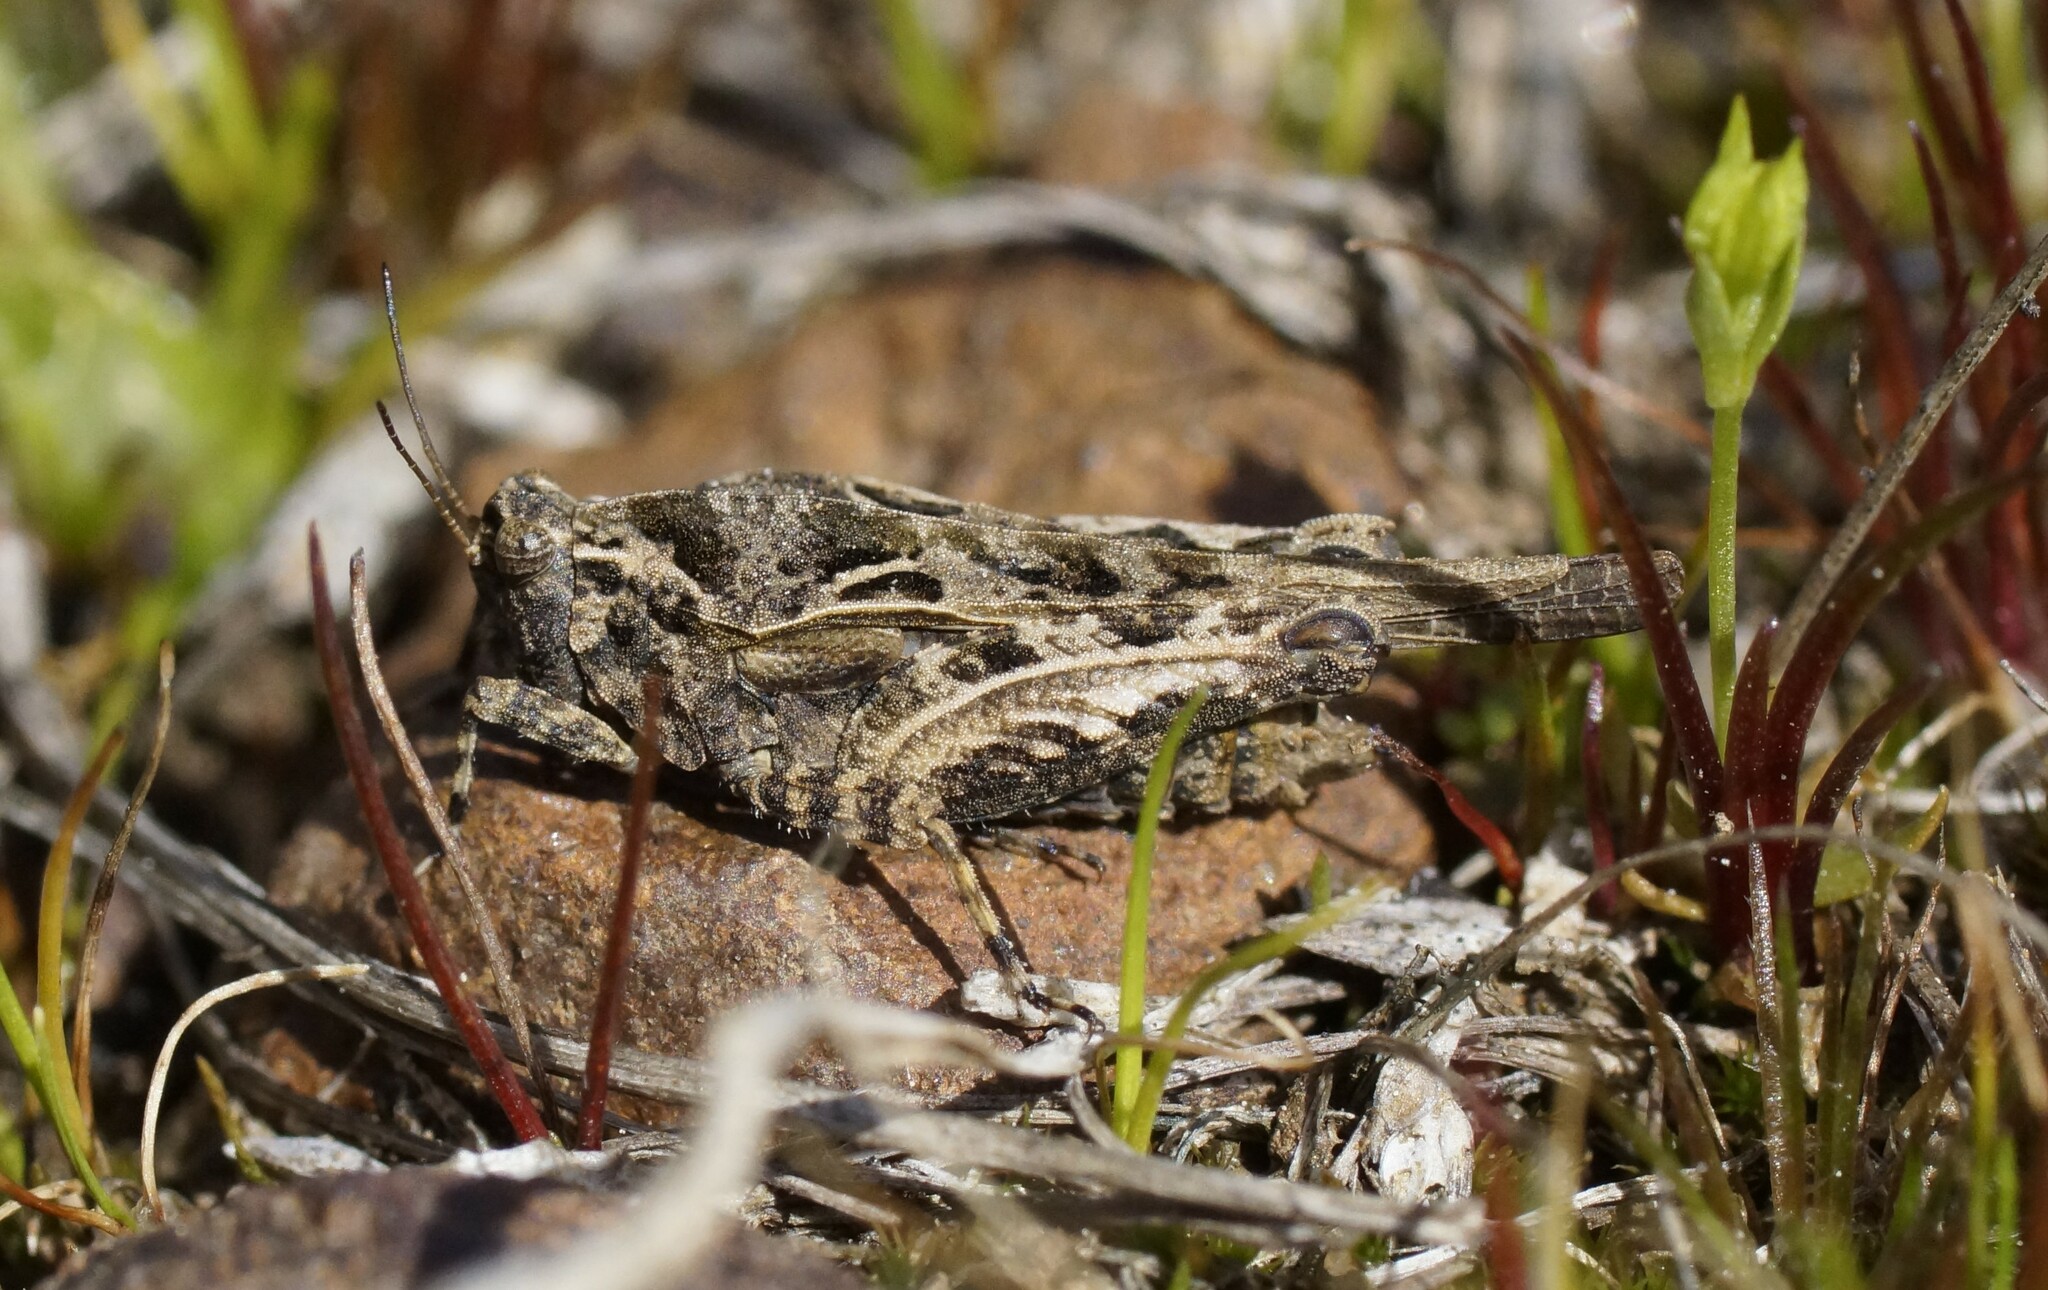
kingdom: Animalia
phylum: Arthropoda
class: Insecta
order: Orthoptera
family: Tetrigidae
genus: Paratettix
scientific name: Paratettix argillaceus
